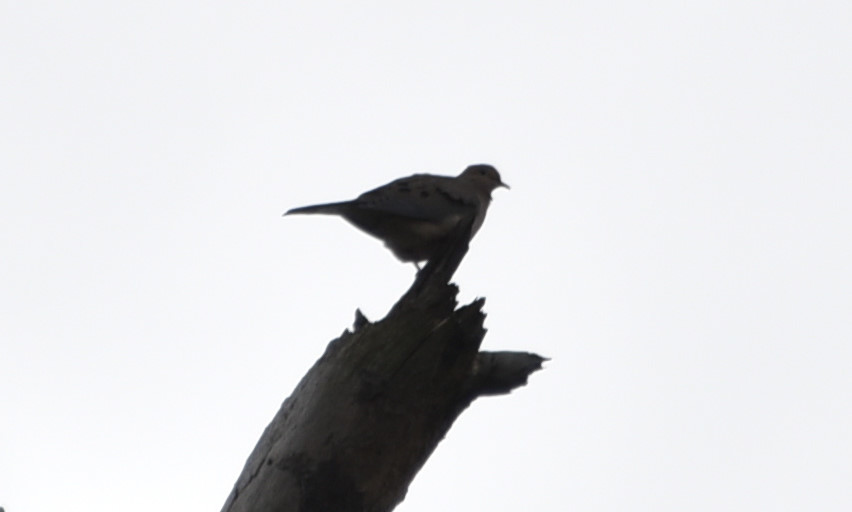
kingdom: Animalia
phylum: Chordata
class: Aves
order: Columbiformes
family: Columbidae
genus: Zenaida
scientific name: Zenaida macroura
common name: Mourning dove
